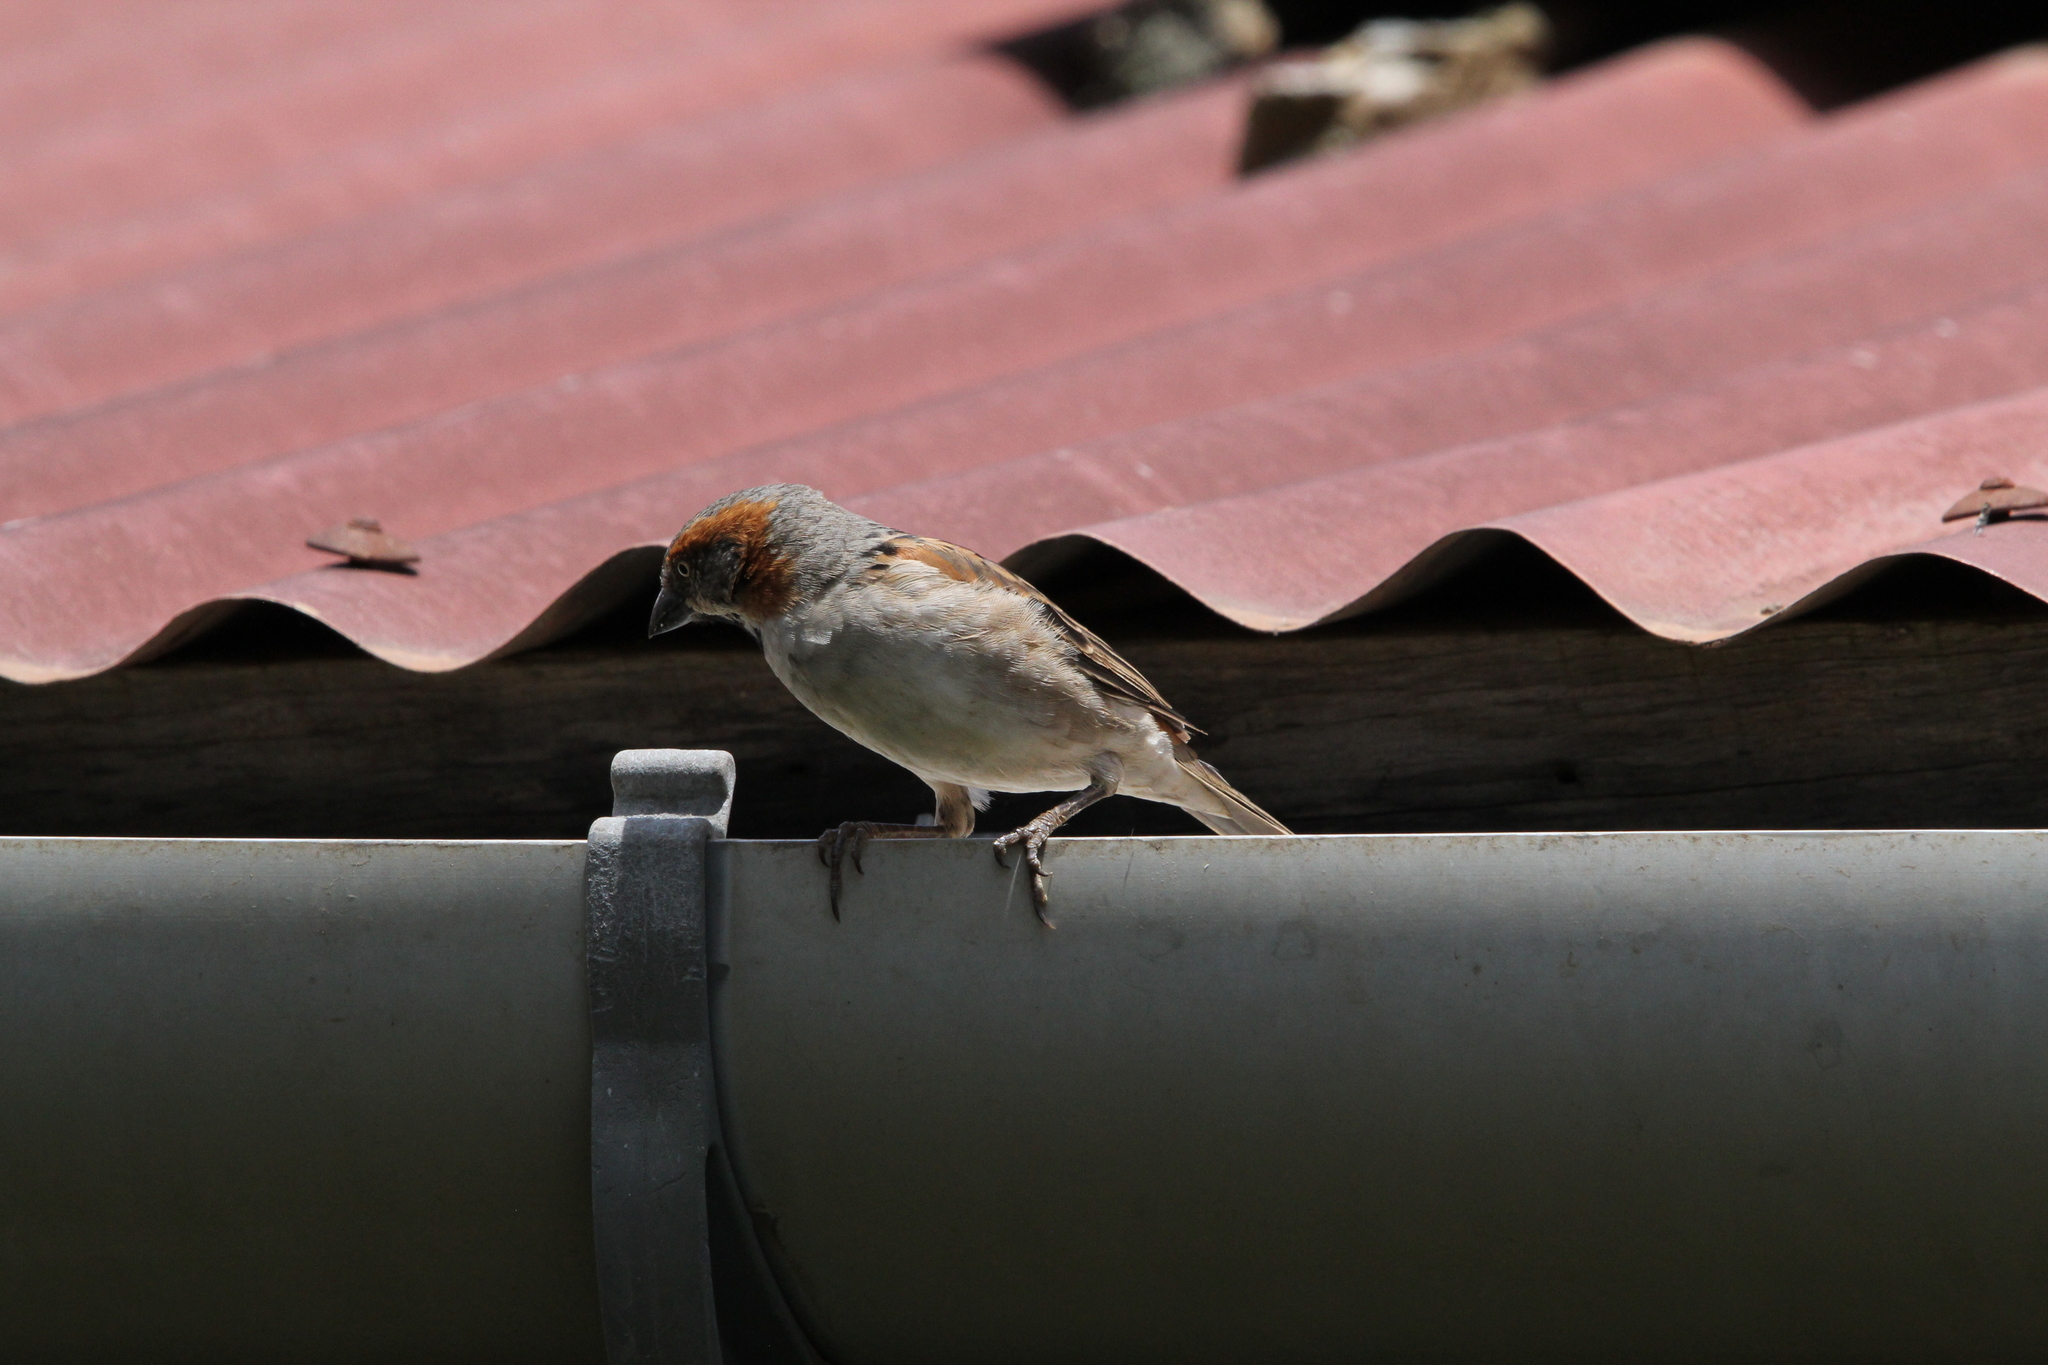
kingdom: Animalia
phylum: Chordata
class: Aves
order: Passeriformes
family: Passeridae
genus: Passer
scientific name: Passer rufocinctus
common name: Kenya sparrow
